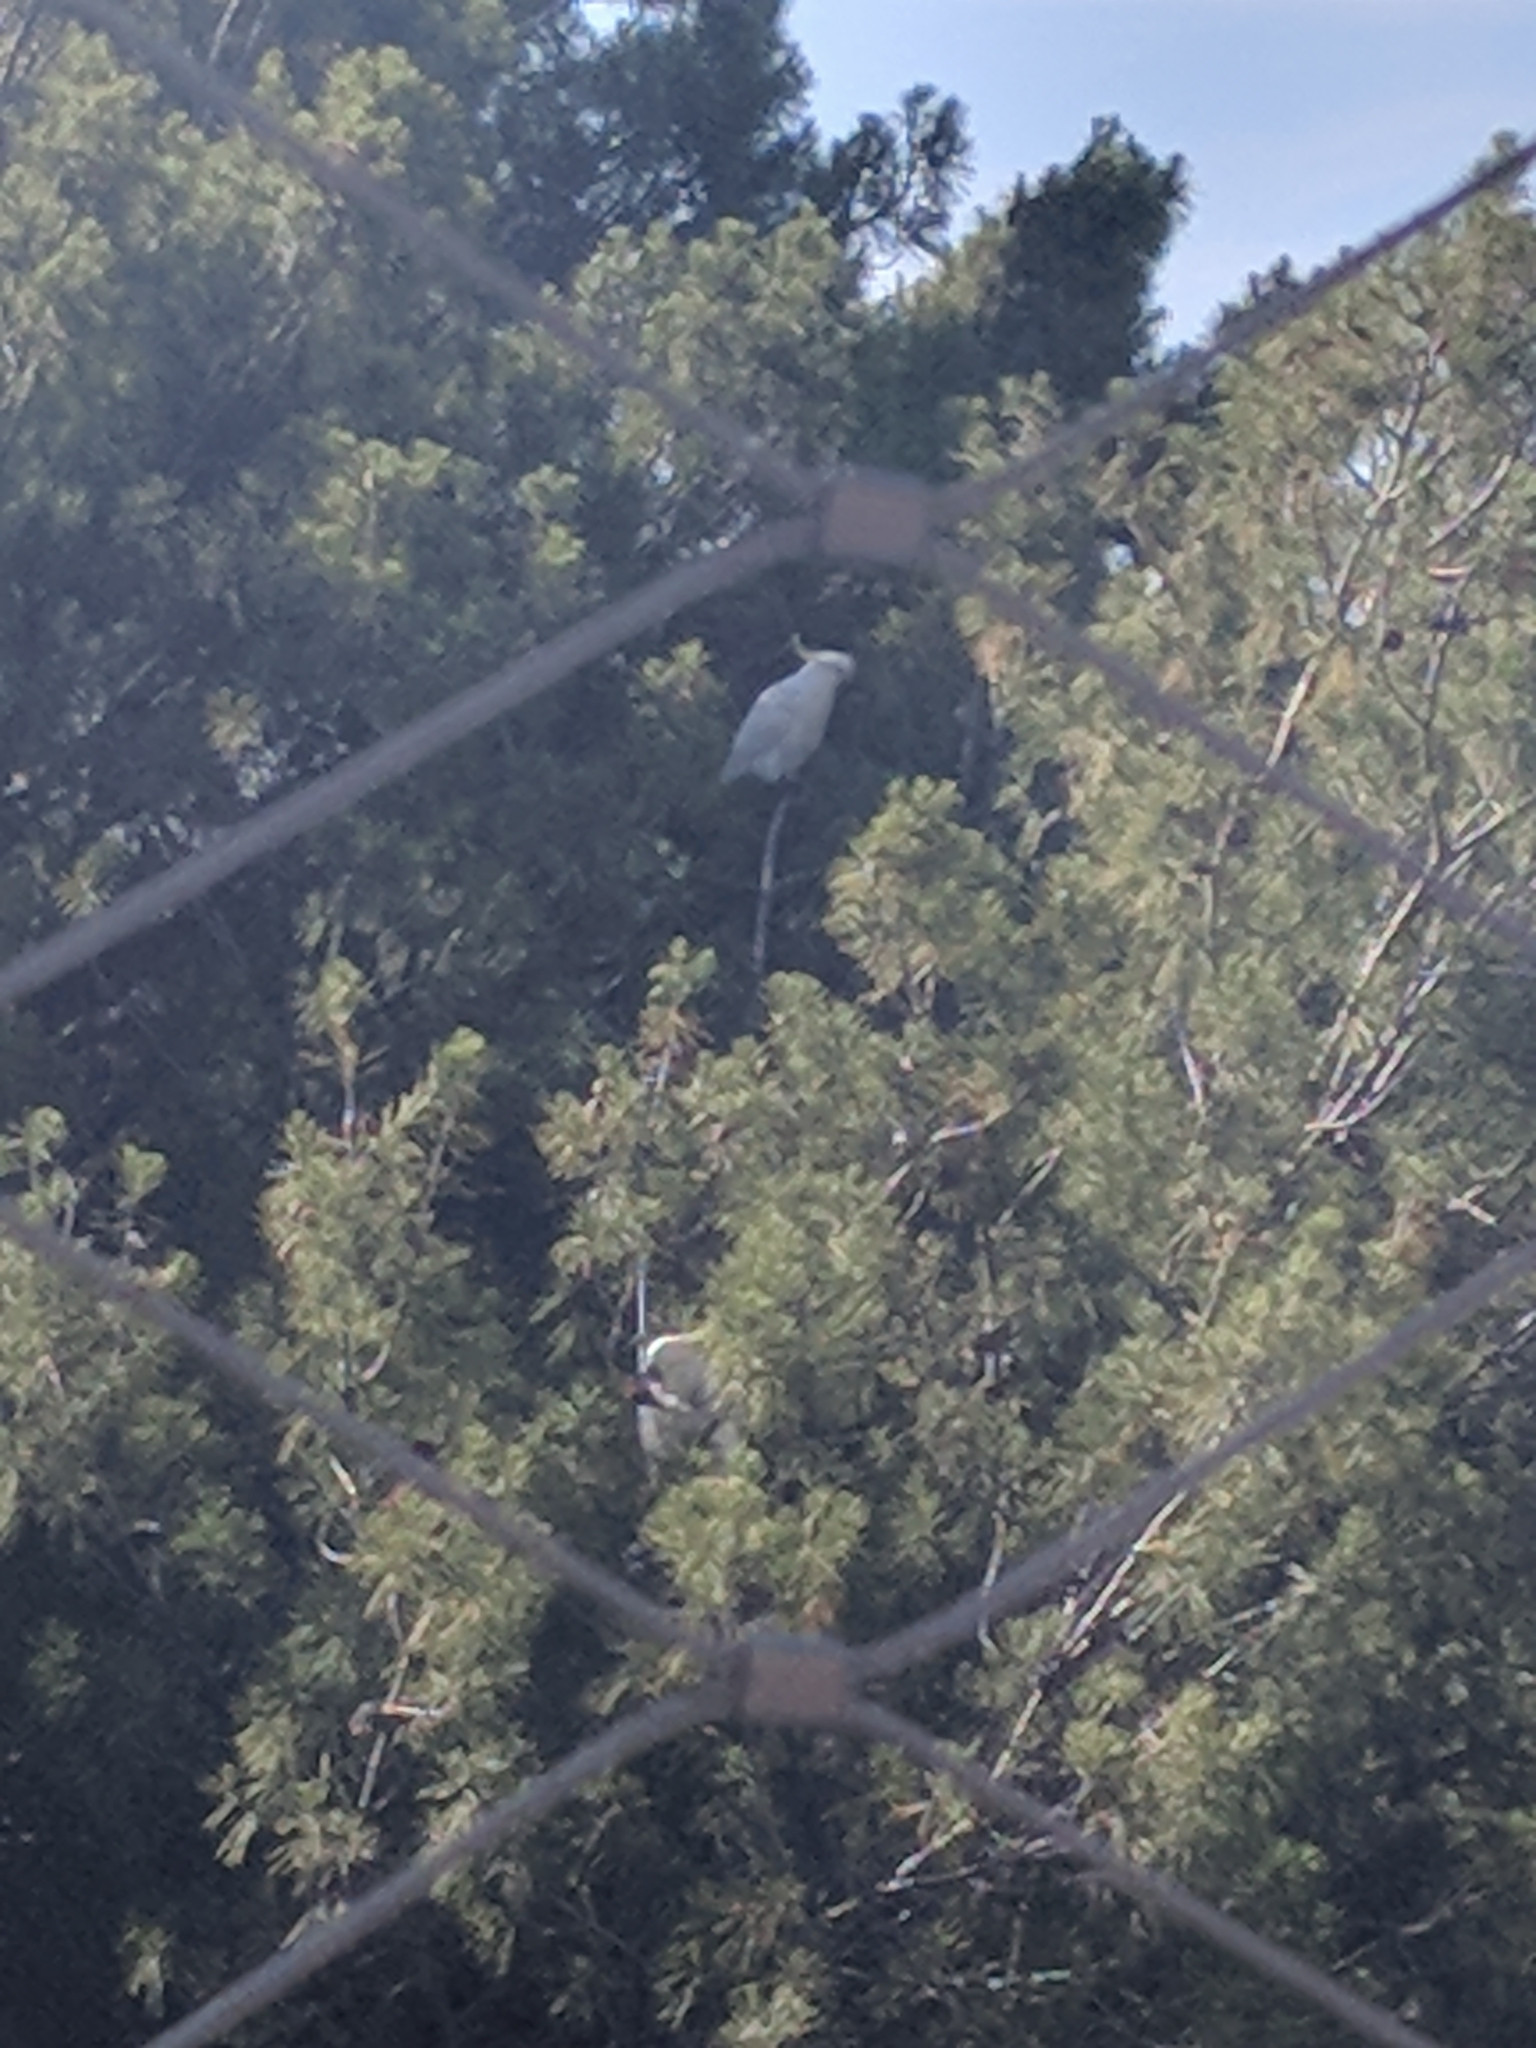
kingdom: Animalia
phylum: Chordata
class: Aves
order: Psittaciformes
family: Psittacidae
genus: Cacatua
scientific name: Cacatua galerita
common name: Sulphur-crested cockatoo
